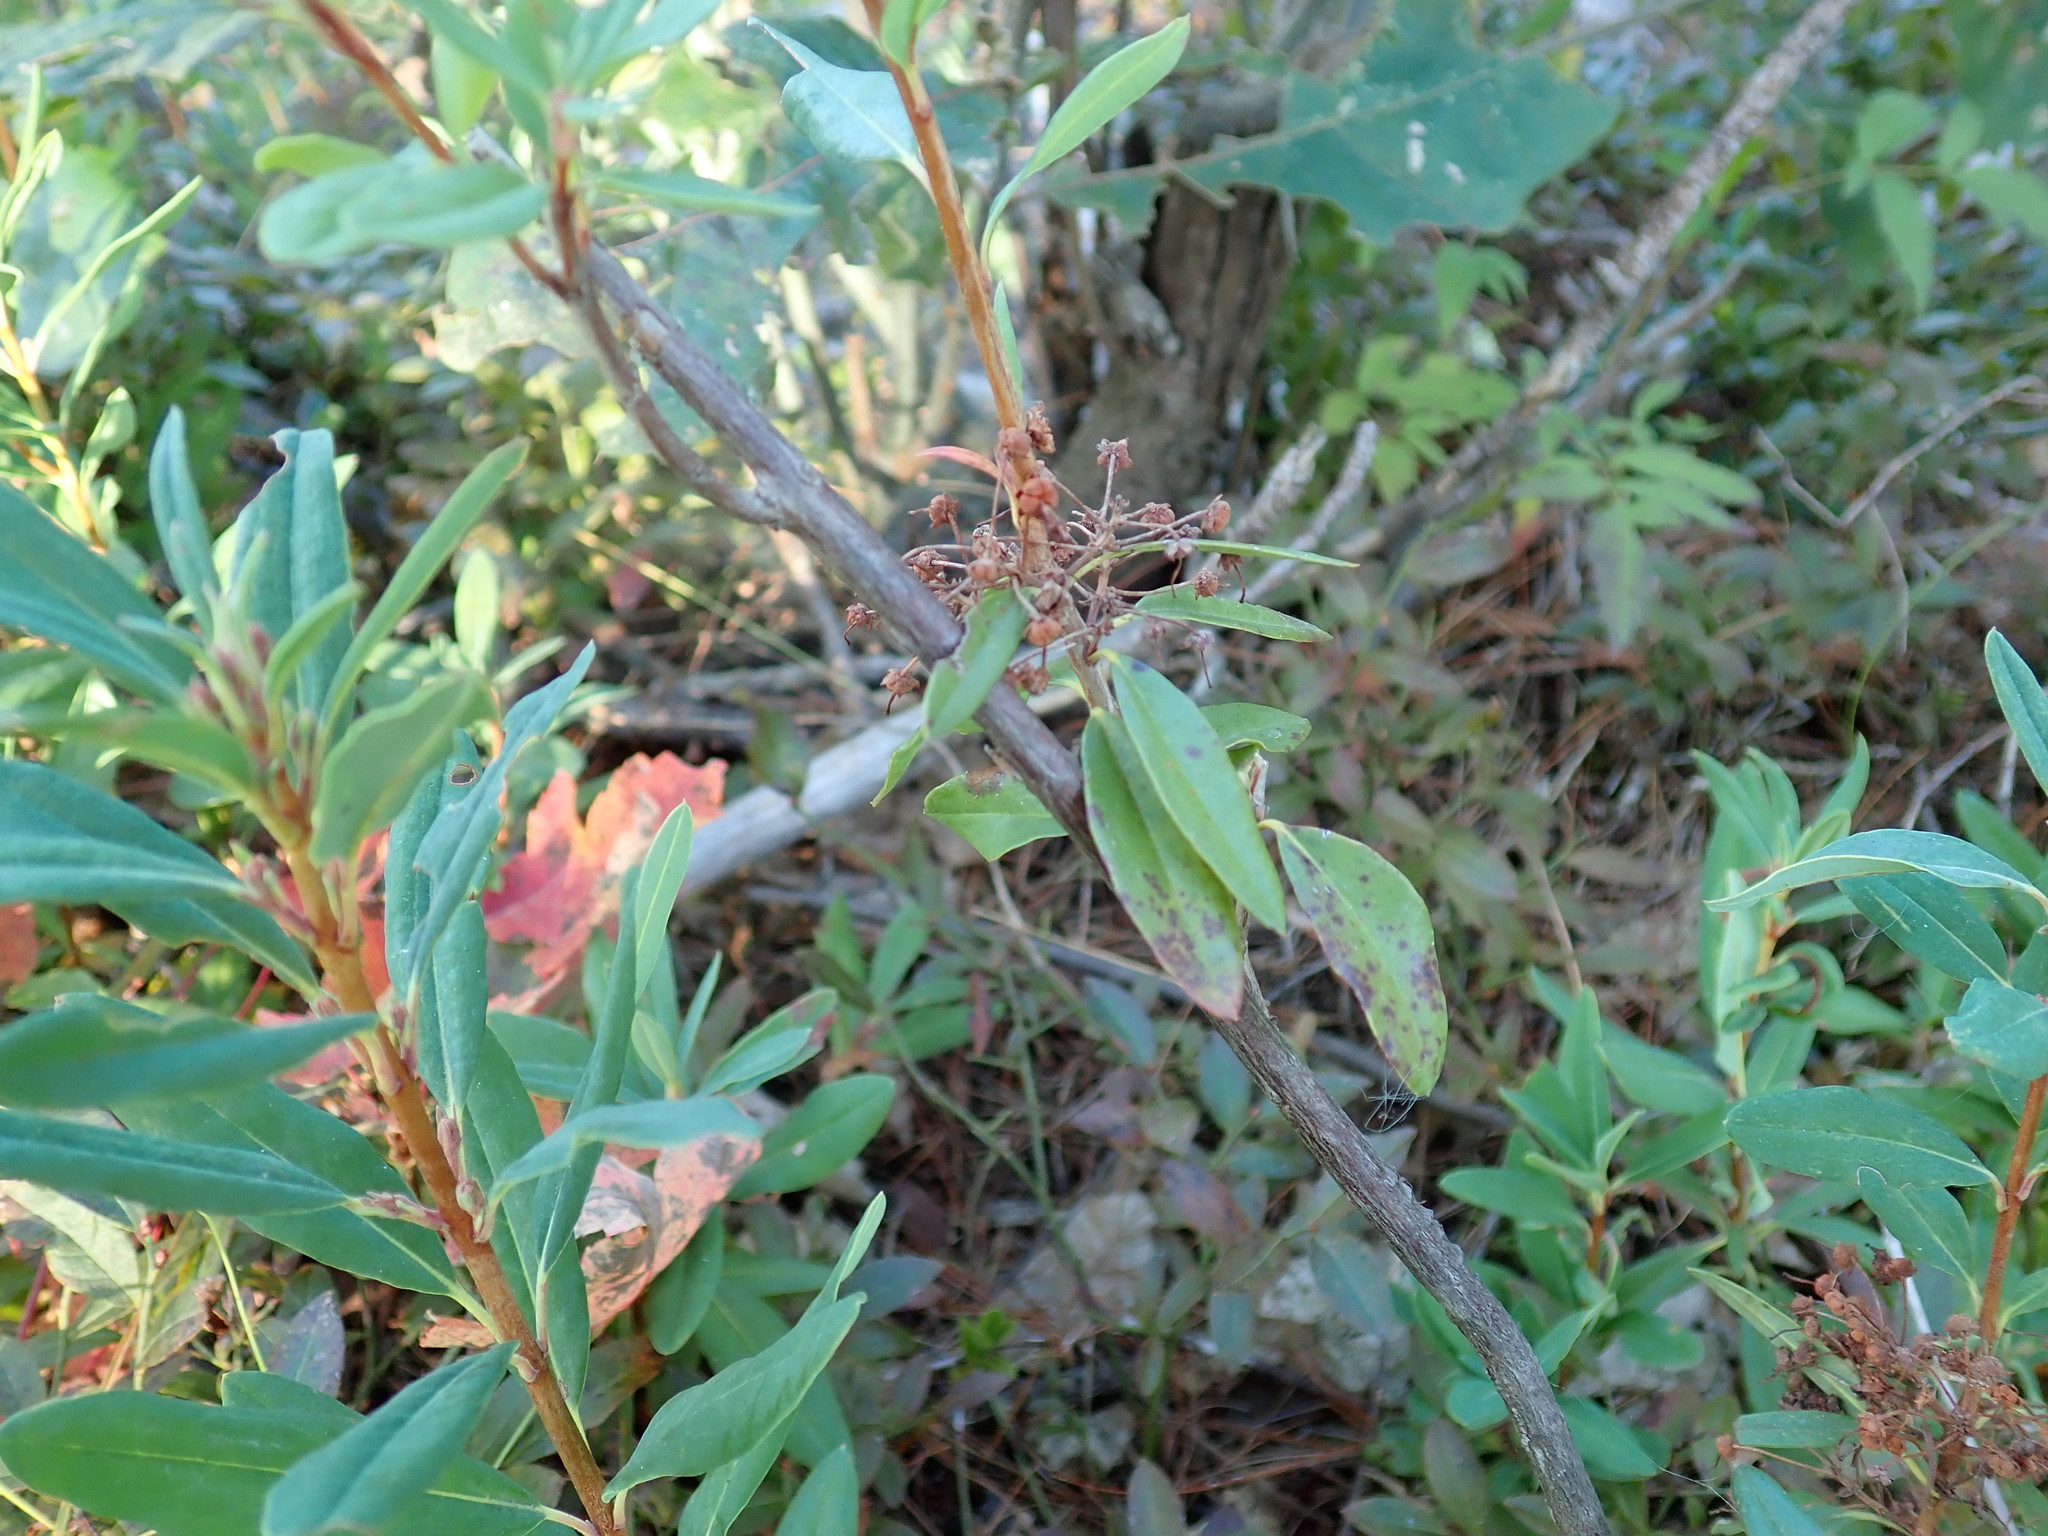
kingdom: Plantae
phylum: Tracheophyta
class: Magnoliopsida
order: Ericales
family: Ericaceae
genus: Kalmia
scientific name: Kalmia angustifolia
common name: Sheep-laurel
